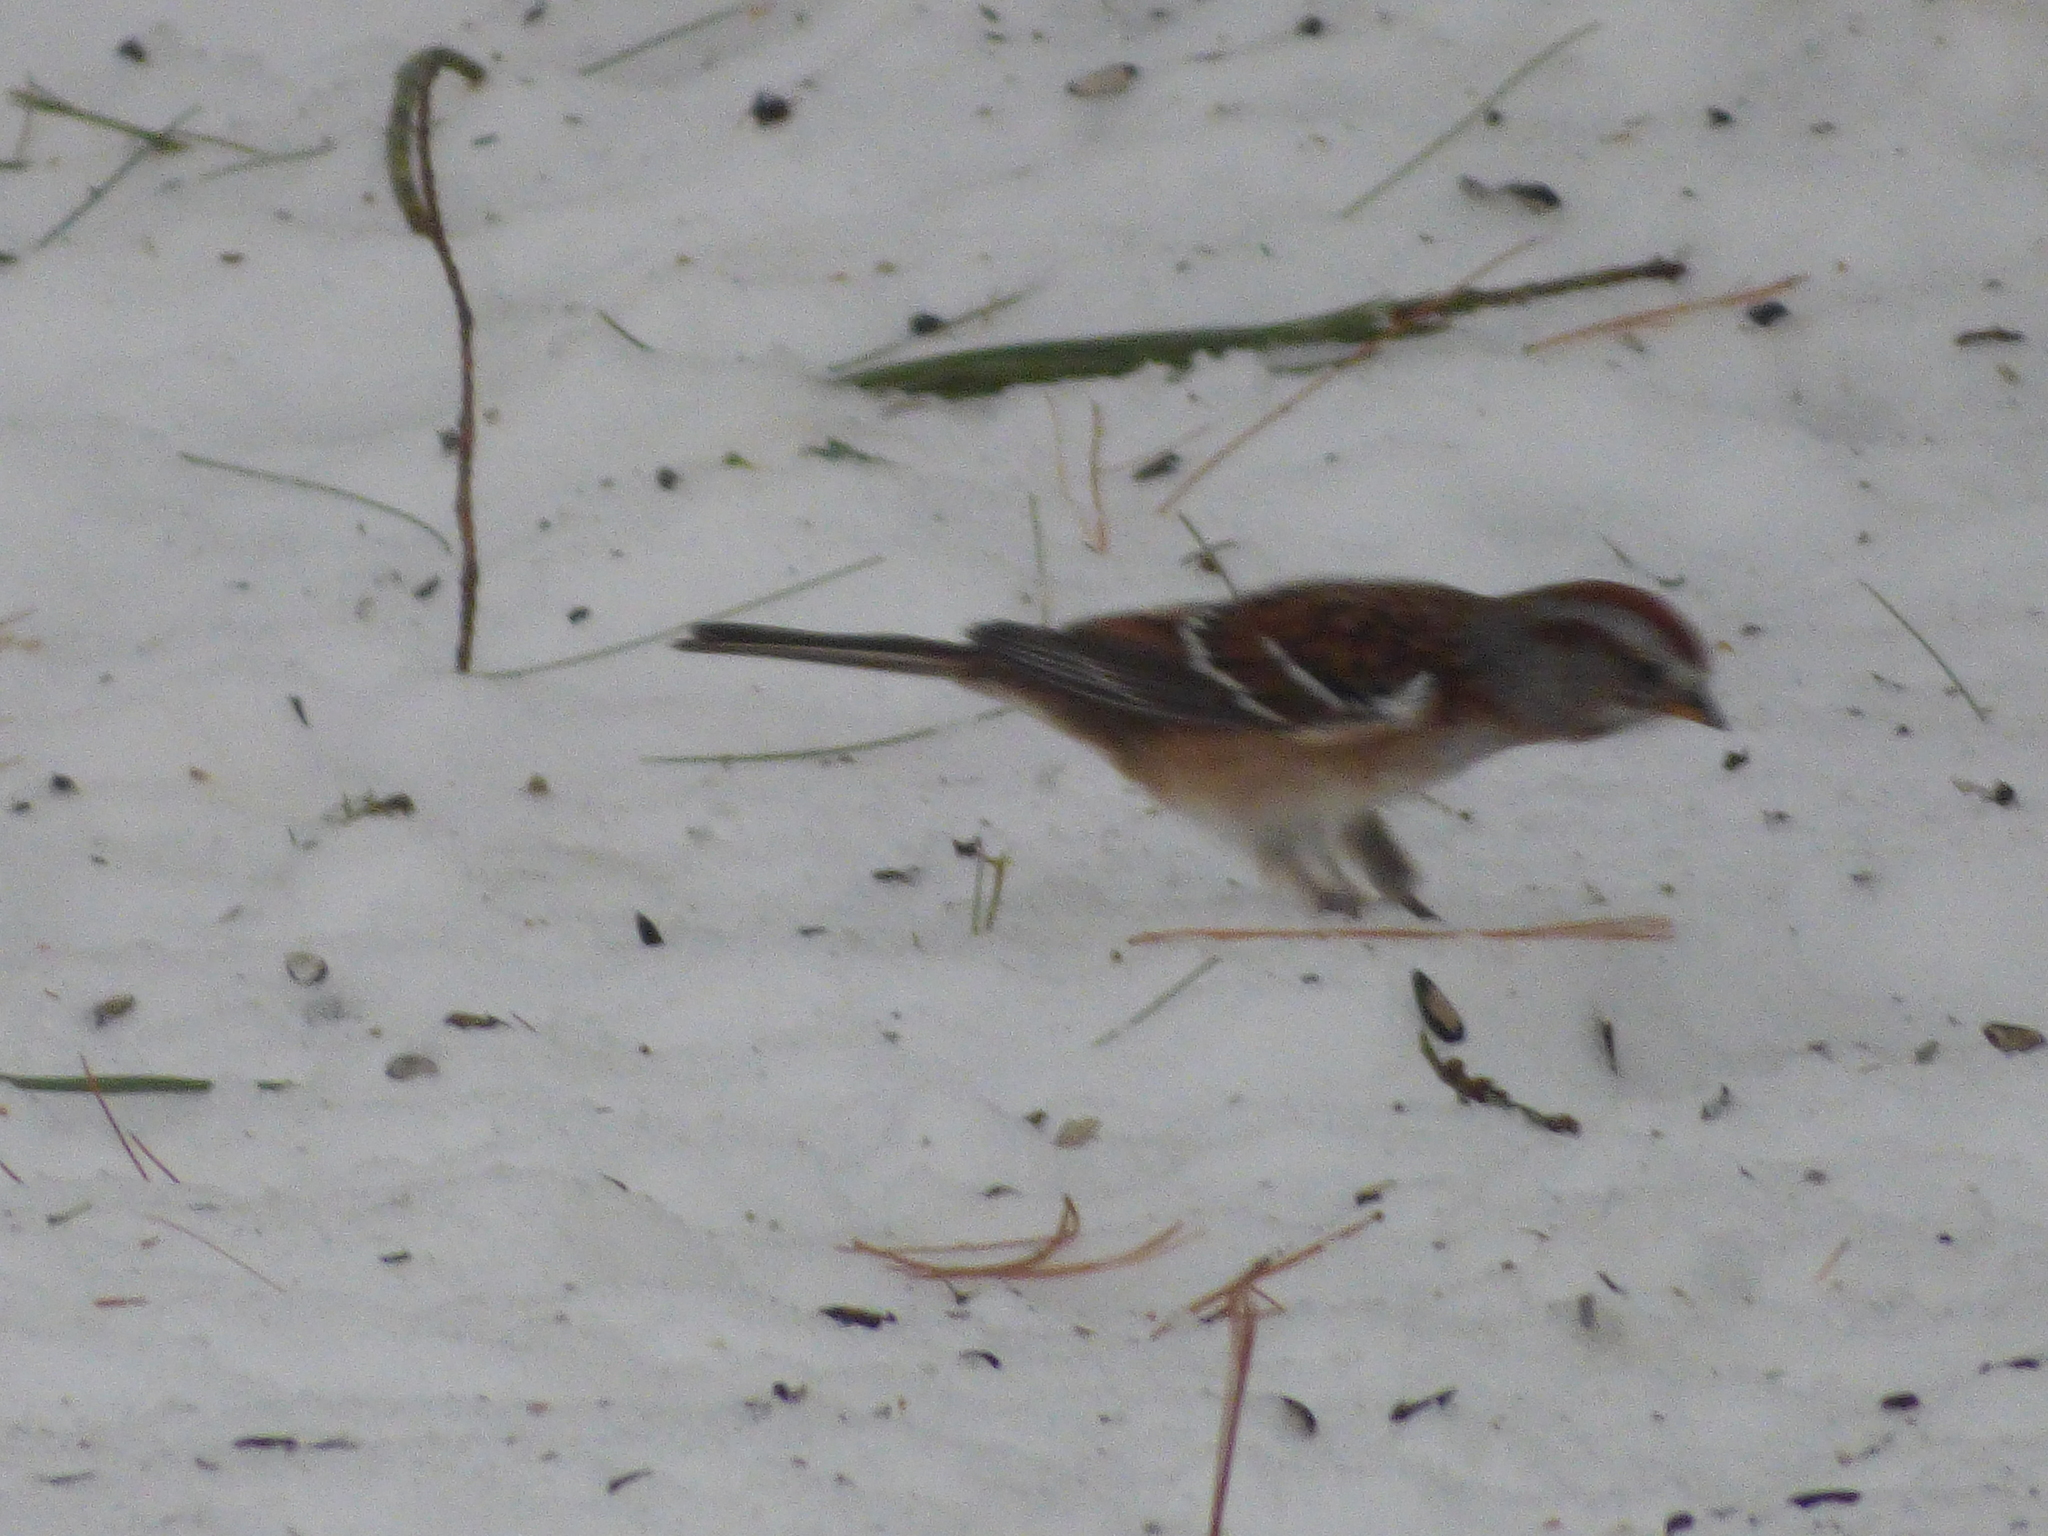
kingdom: Animalia
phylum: Chordata
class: Aves
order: Passeriformes
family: Passerellidae
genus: Spizelloides
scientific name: Spizelloides arborea
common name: American tree sparrow
